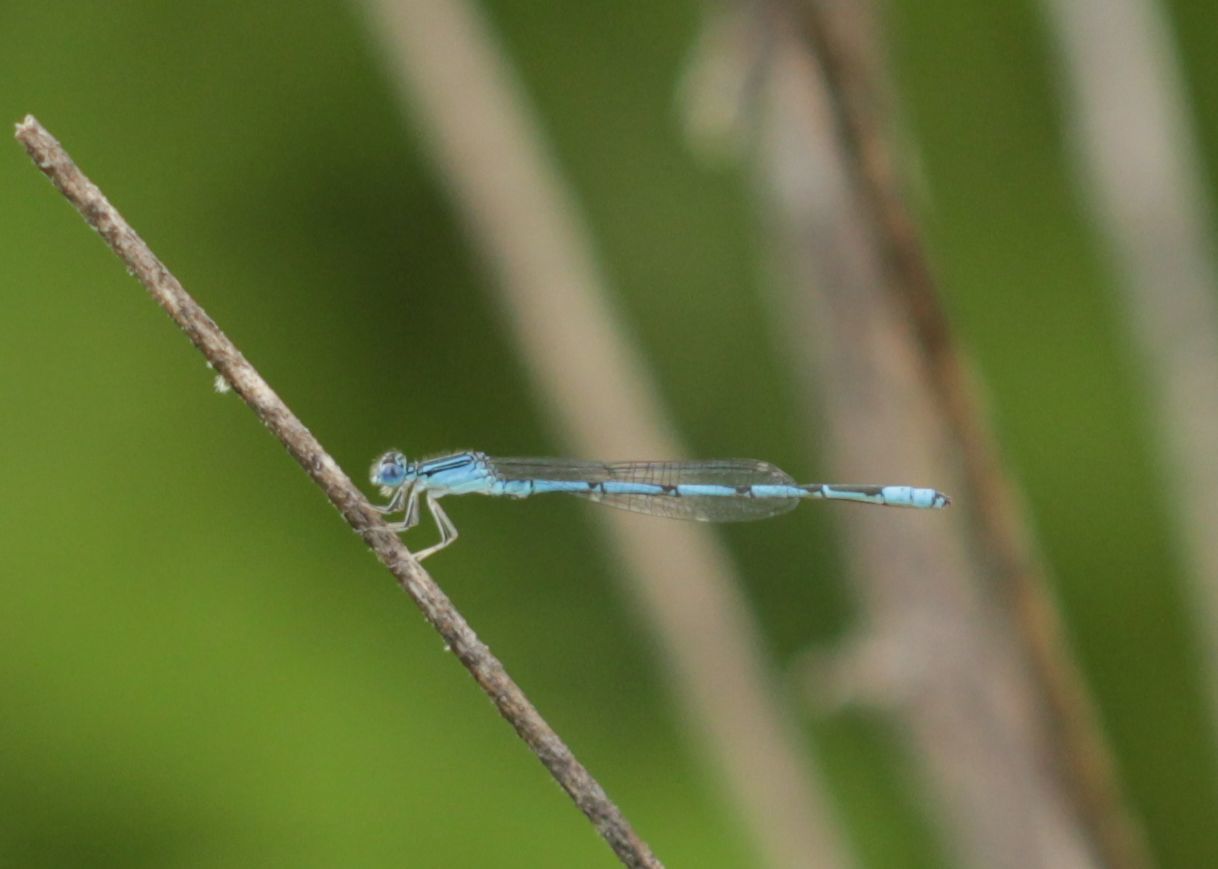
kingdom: Animalia
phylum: Arthropoda
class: Insecta
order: Odonata
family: Coenagrionidae
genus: Enallagma
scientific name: Enallagma basidens
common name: Double-striped bluet
